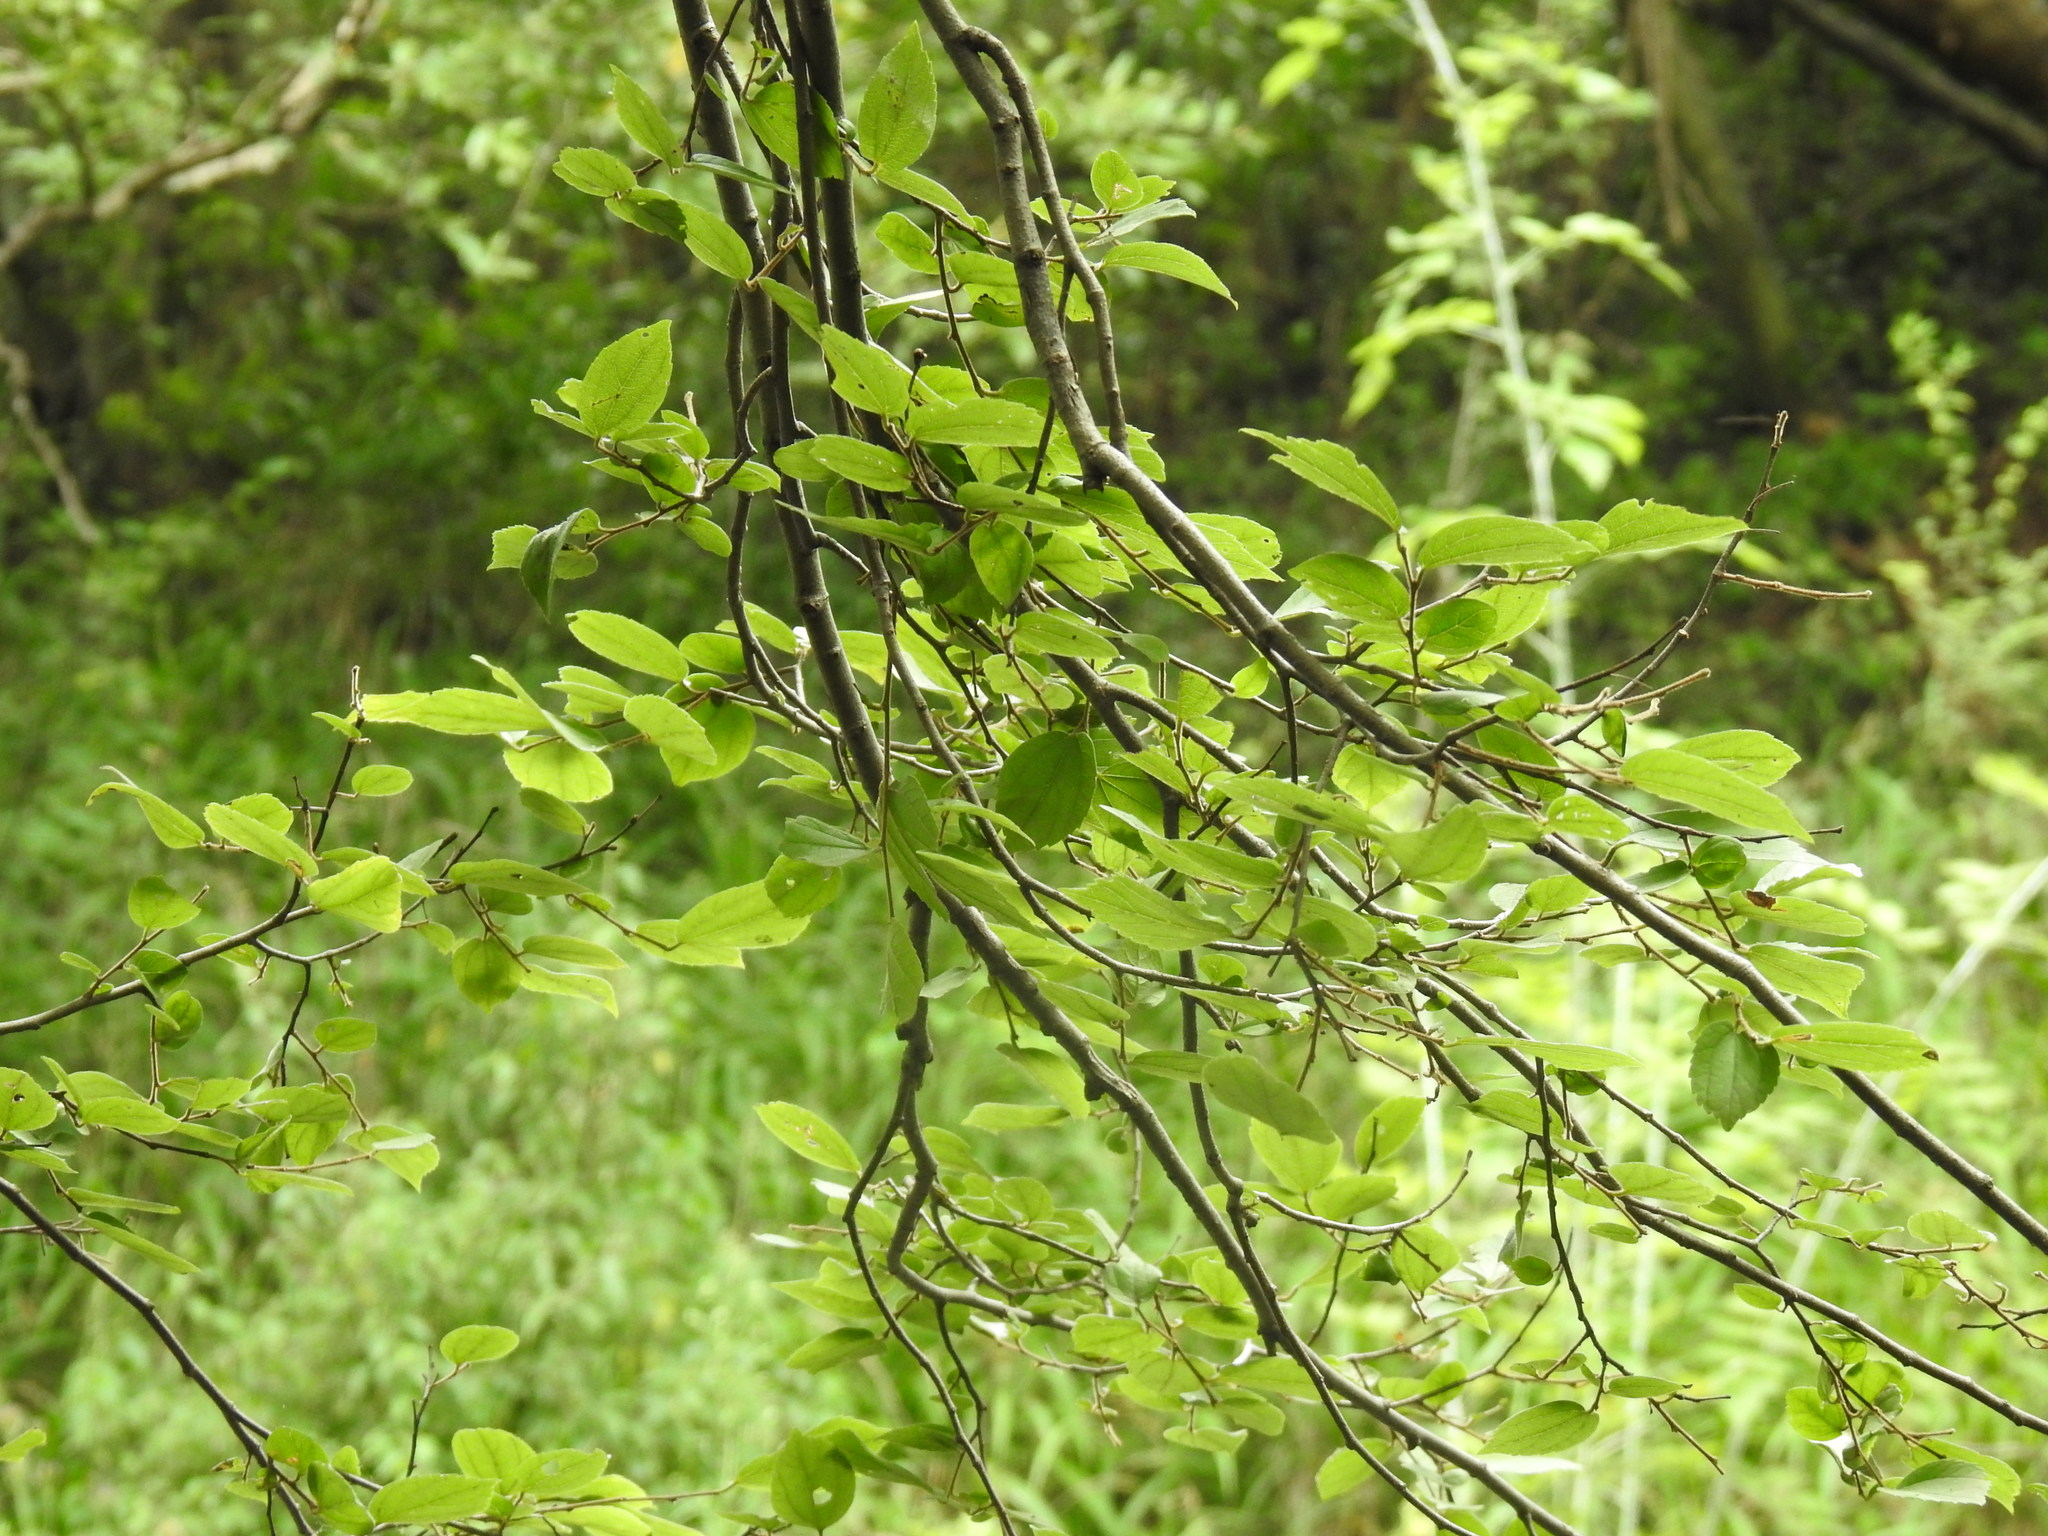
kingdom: Plantae
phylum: Tracheophyta
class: Magnoliopsida
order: Rosales
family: Cannabaceae
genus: Celtis
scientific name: Celtis africana
